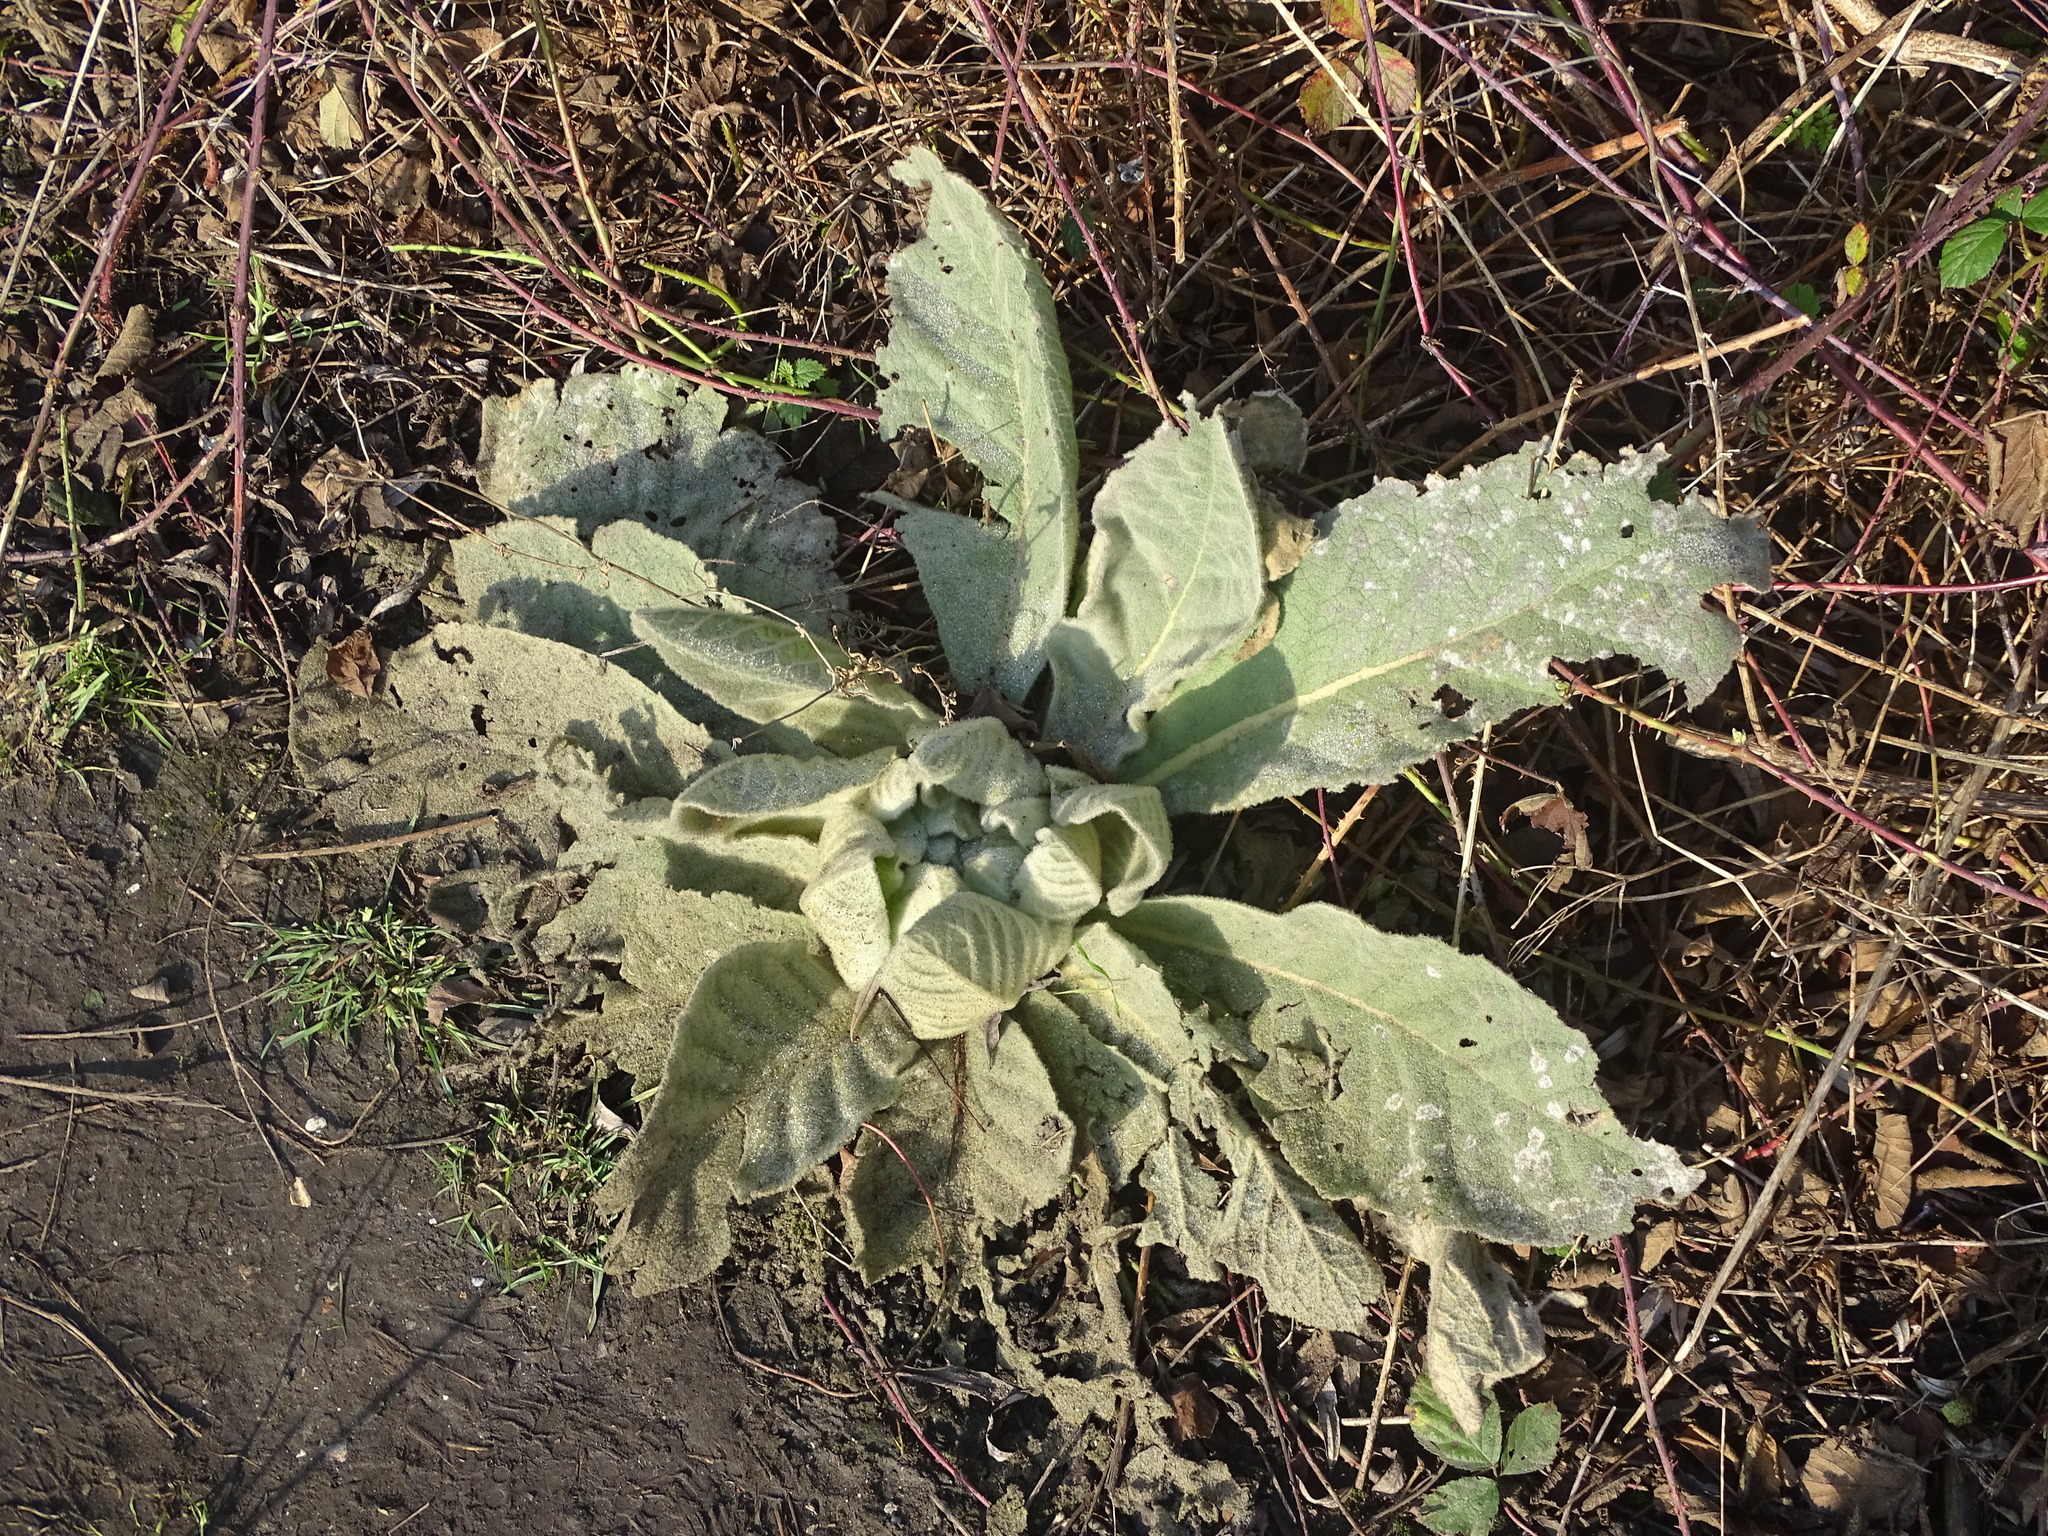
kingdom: Plantae
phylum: Tracheophyta
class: Magnoliopsida
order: Lamiales
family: Scrophulariaceae
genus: Verbascum
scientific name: Verbascum thapsus
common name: Common mullein
